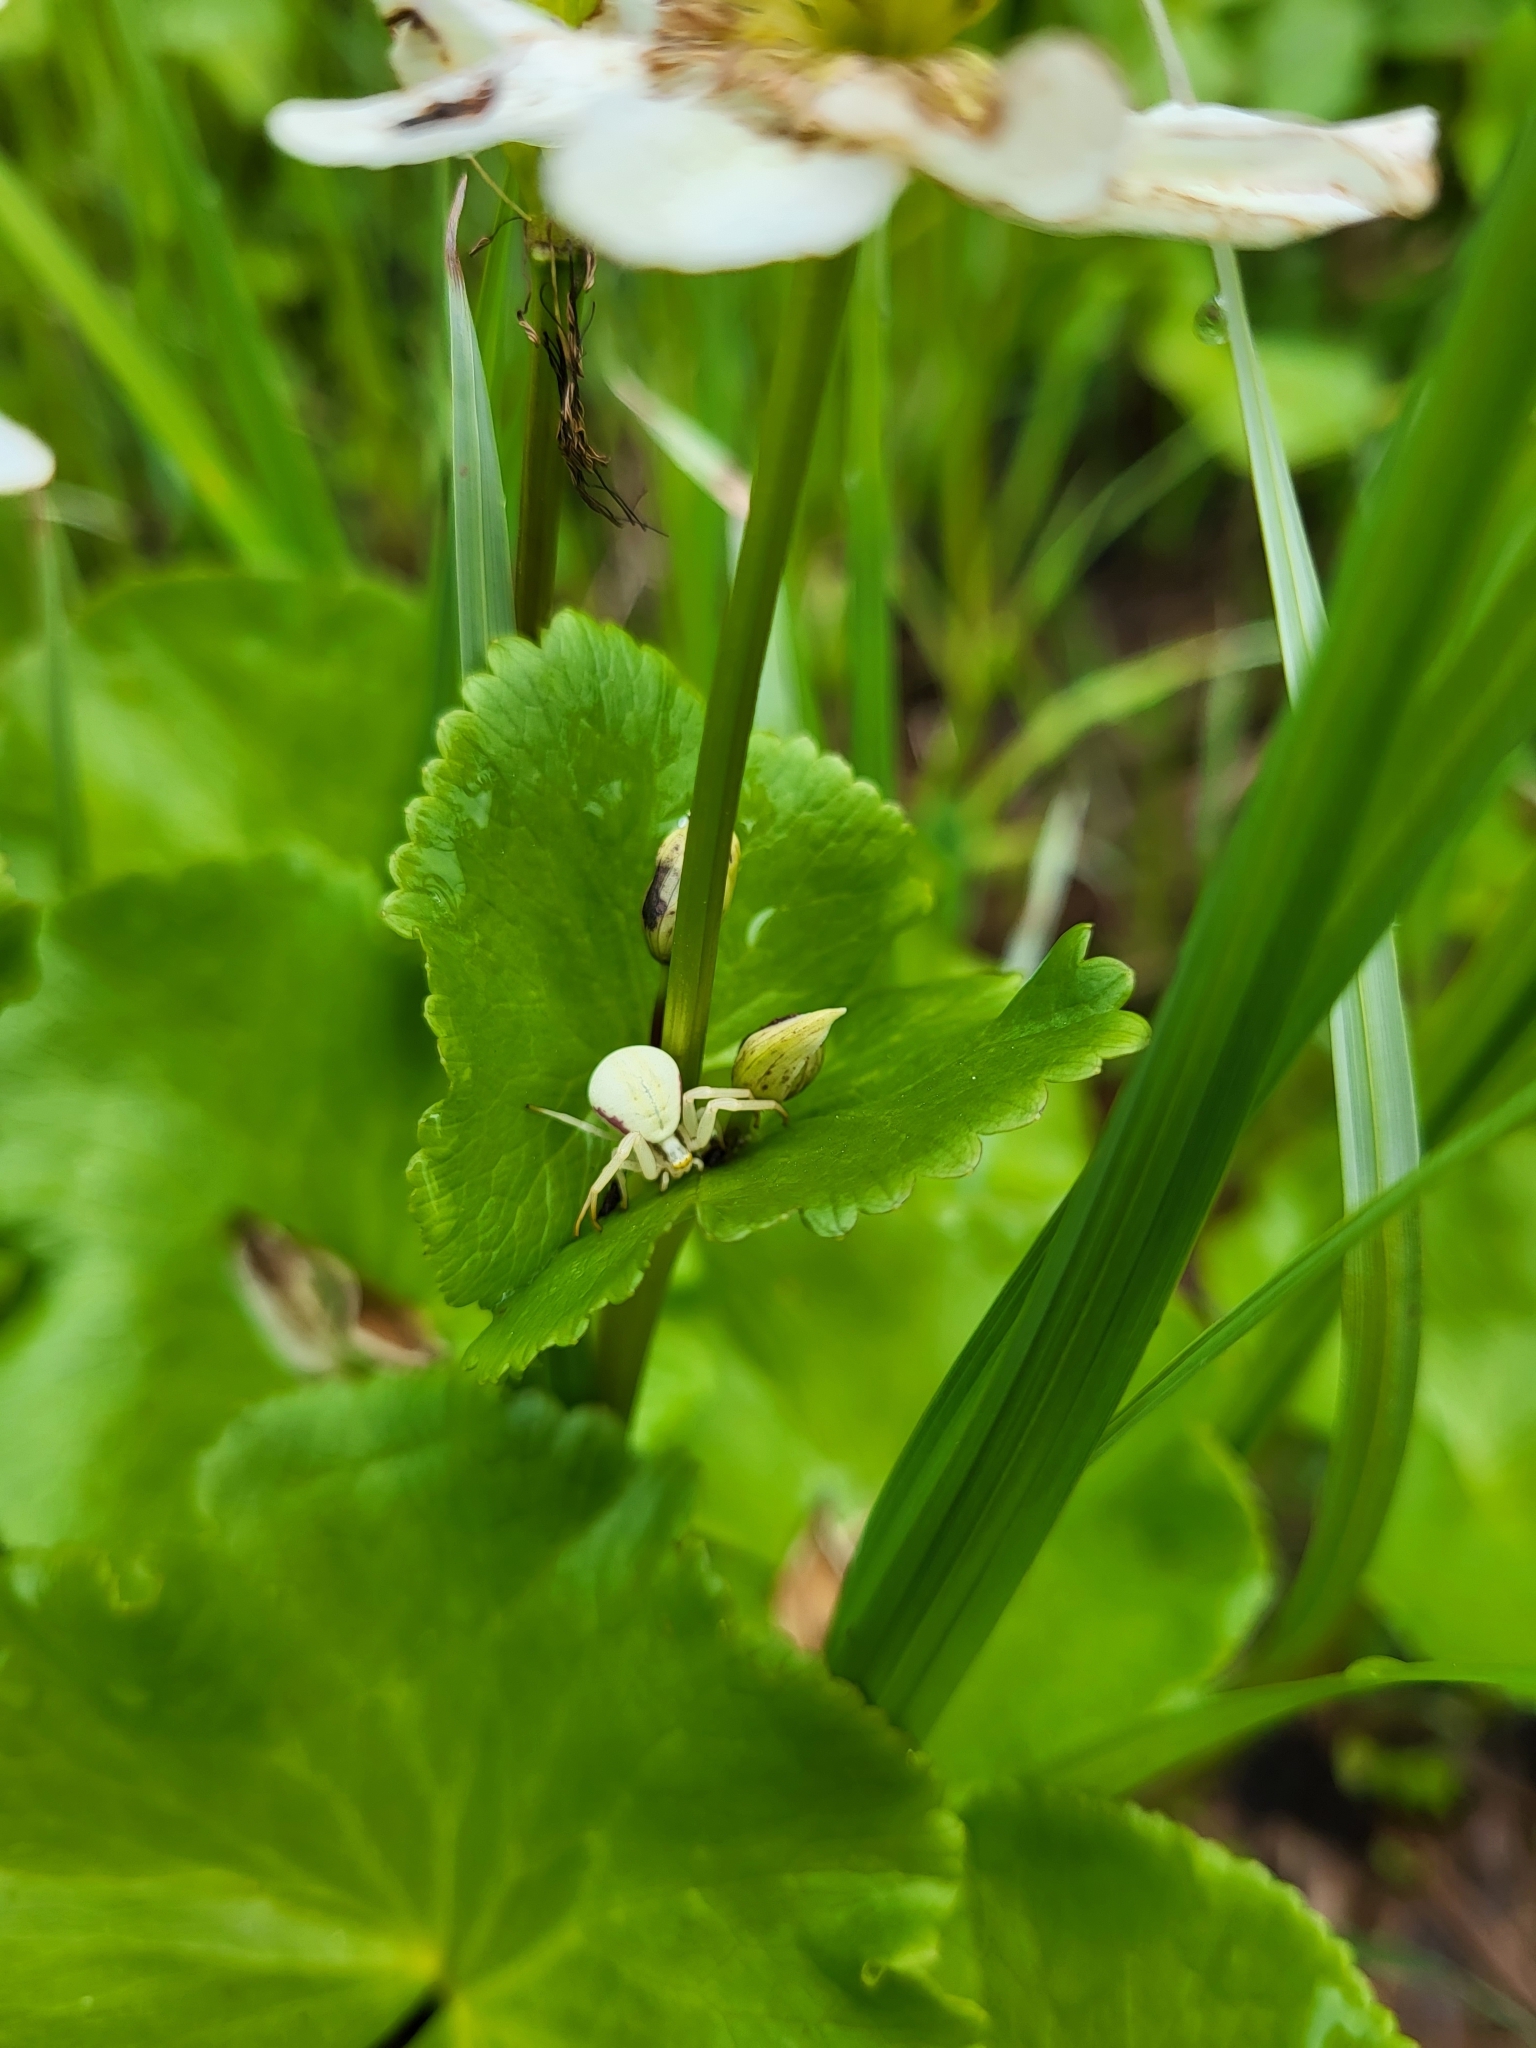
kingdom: Animalia
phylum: Arthropoda
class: Arachnida
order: Araneae
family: Thomisidae
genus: Misumena
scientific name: Misumena vatia
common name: Goldenrod crab spider
